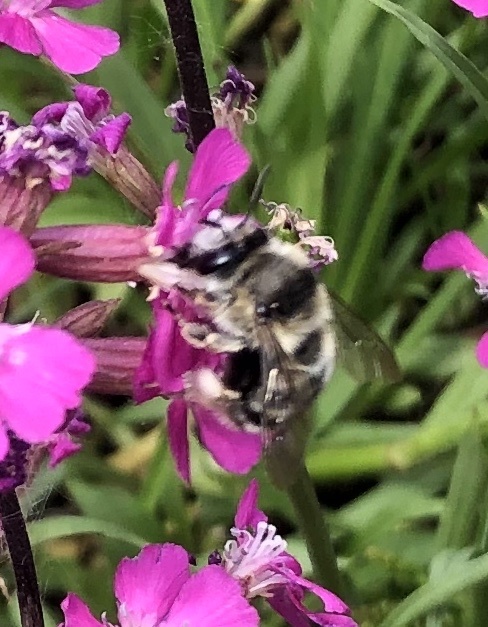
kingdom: Animalia
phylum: Arthropoda
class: Insecta
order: Hymenoptera
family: Apidae
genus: Anthophora
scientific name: Anthophora aestivalis
